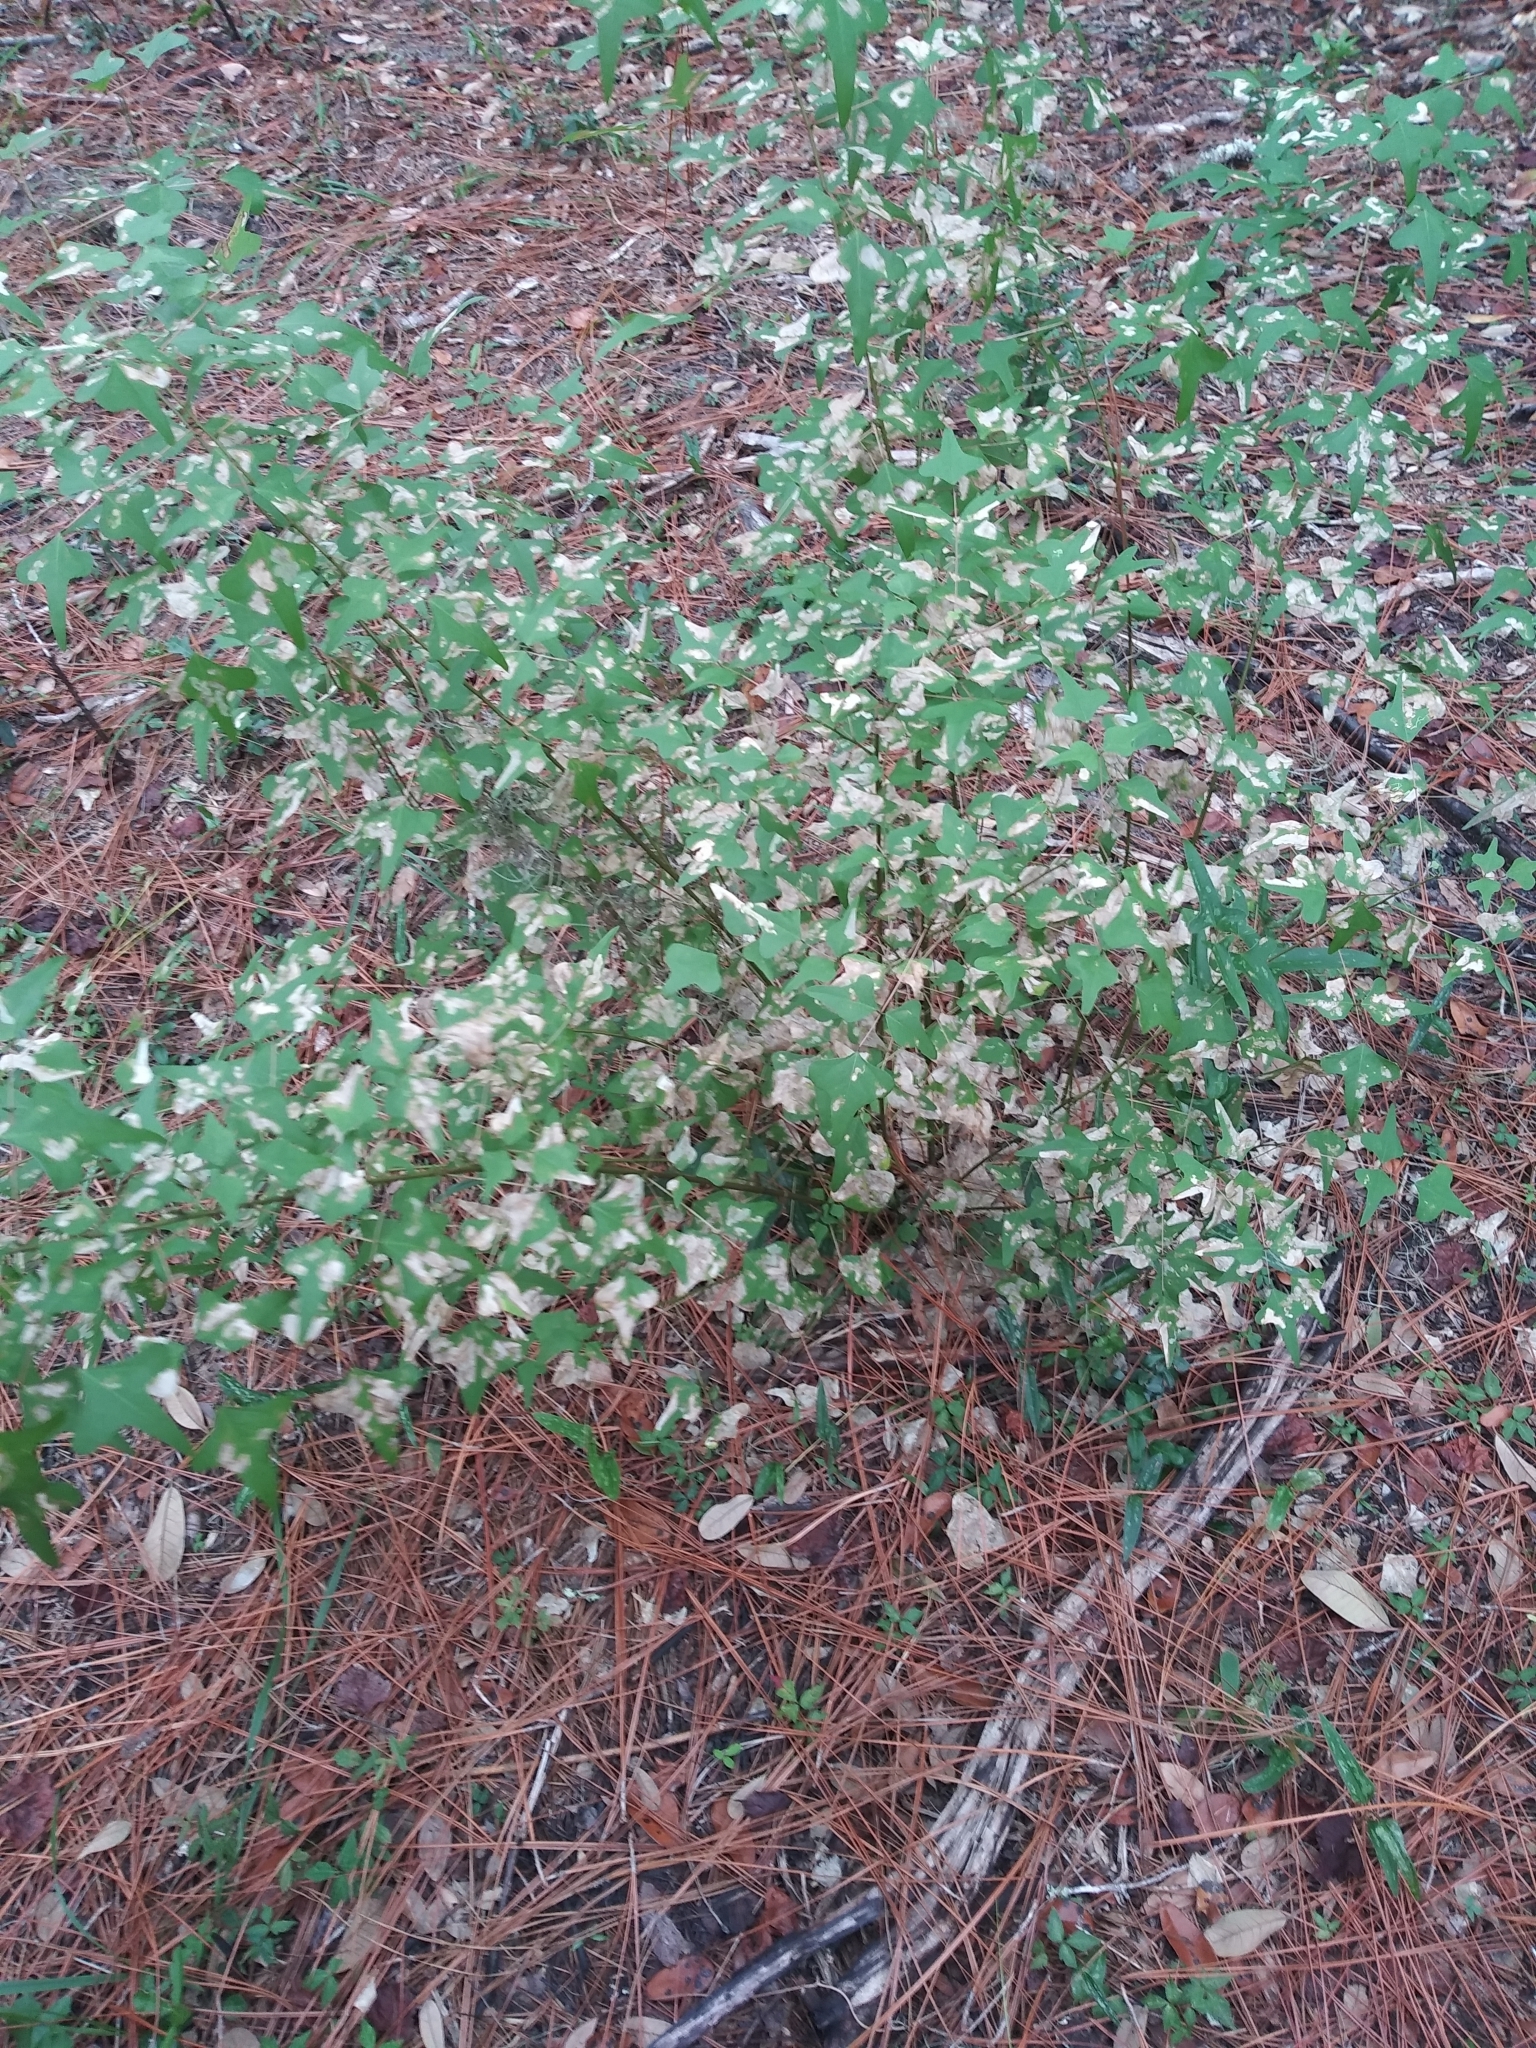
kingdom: Plantae
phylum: Tracheophyta
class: Magnoliopsida
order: Fabales
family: Fabaceae
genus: Erythrina
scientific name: Erythrina herbacea
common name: Coral-bean
